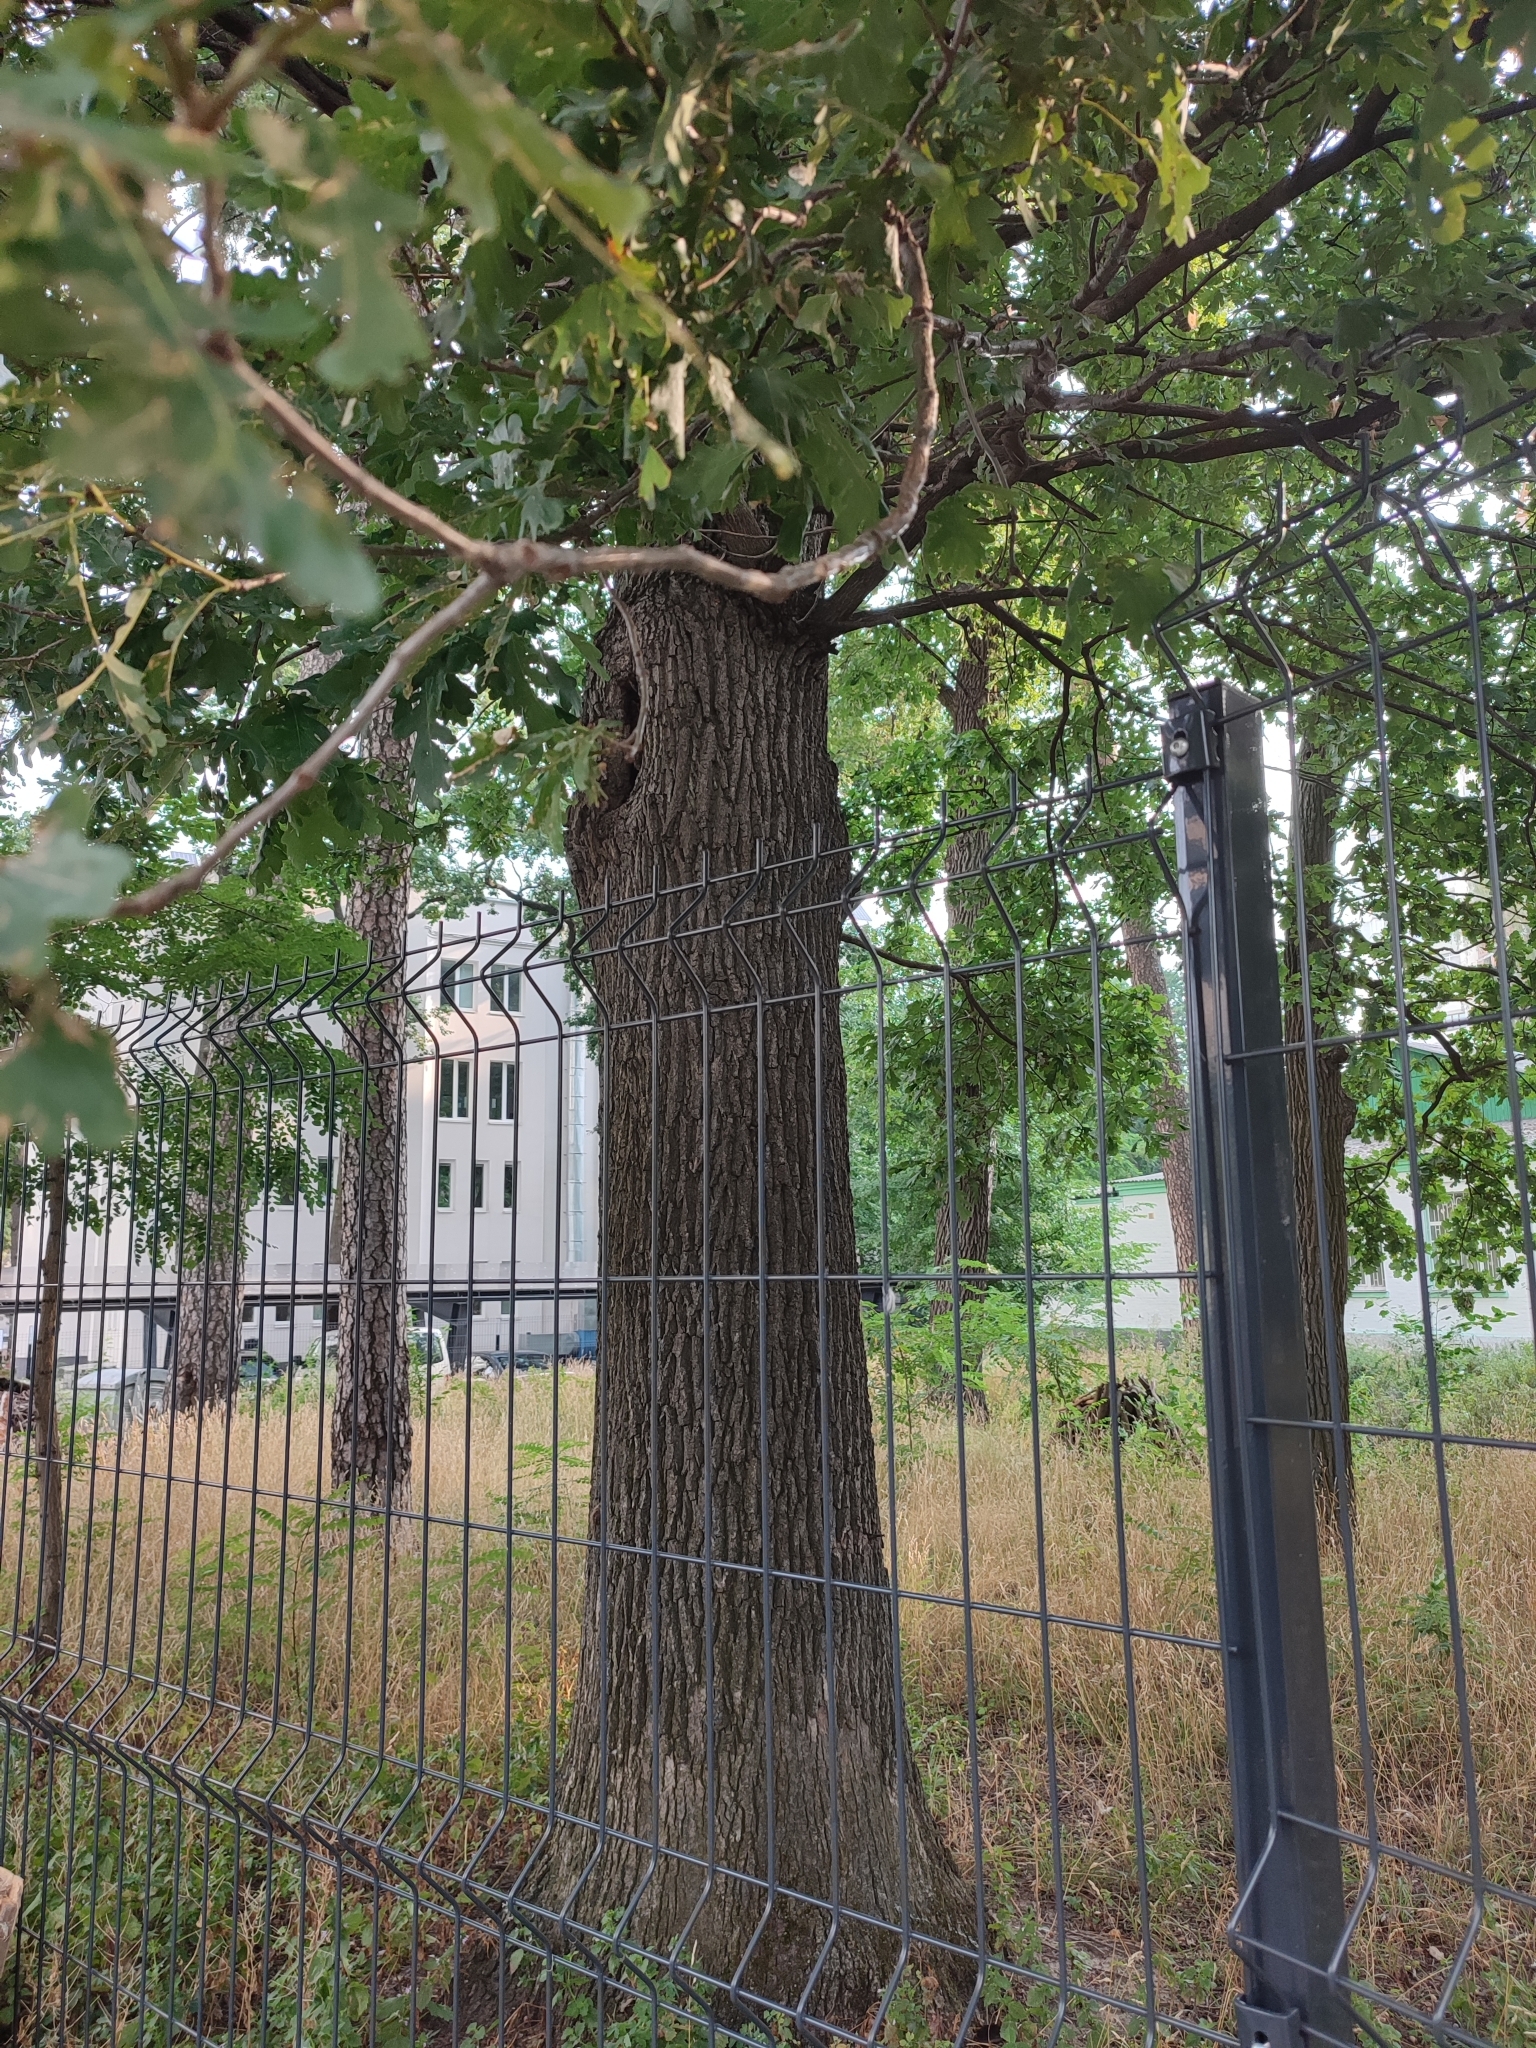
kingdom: Plantae
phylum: Tracheophyta
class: Magnoliopsida
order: Fagales
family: Fagaceae
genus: Quercus
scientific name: Quercus robur
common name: Pedunculate oak
